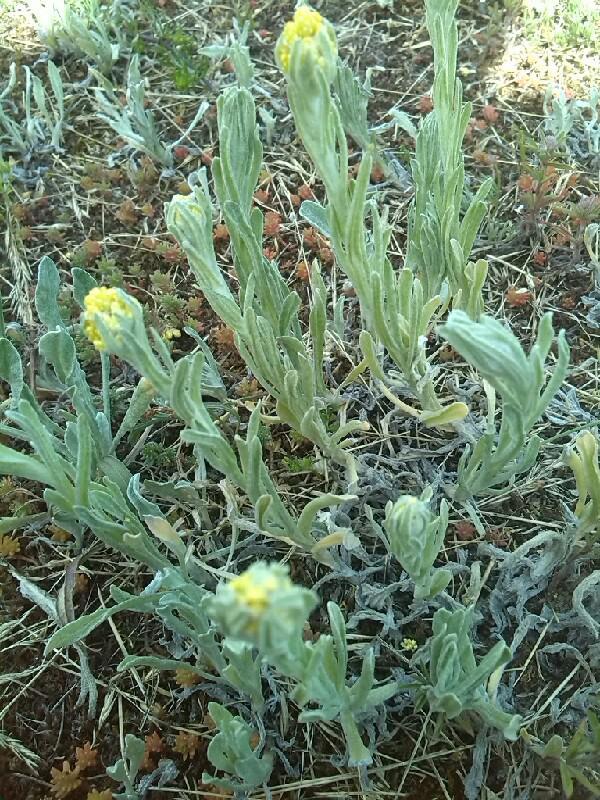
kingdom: Plantae
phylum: Tracheophyta
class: Magnoliopsida
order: Asterales
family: Asteraceae
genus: Helichrysum
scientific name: Helichrysum arenarium
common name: Strawflower
